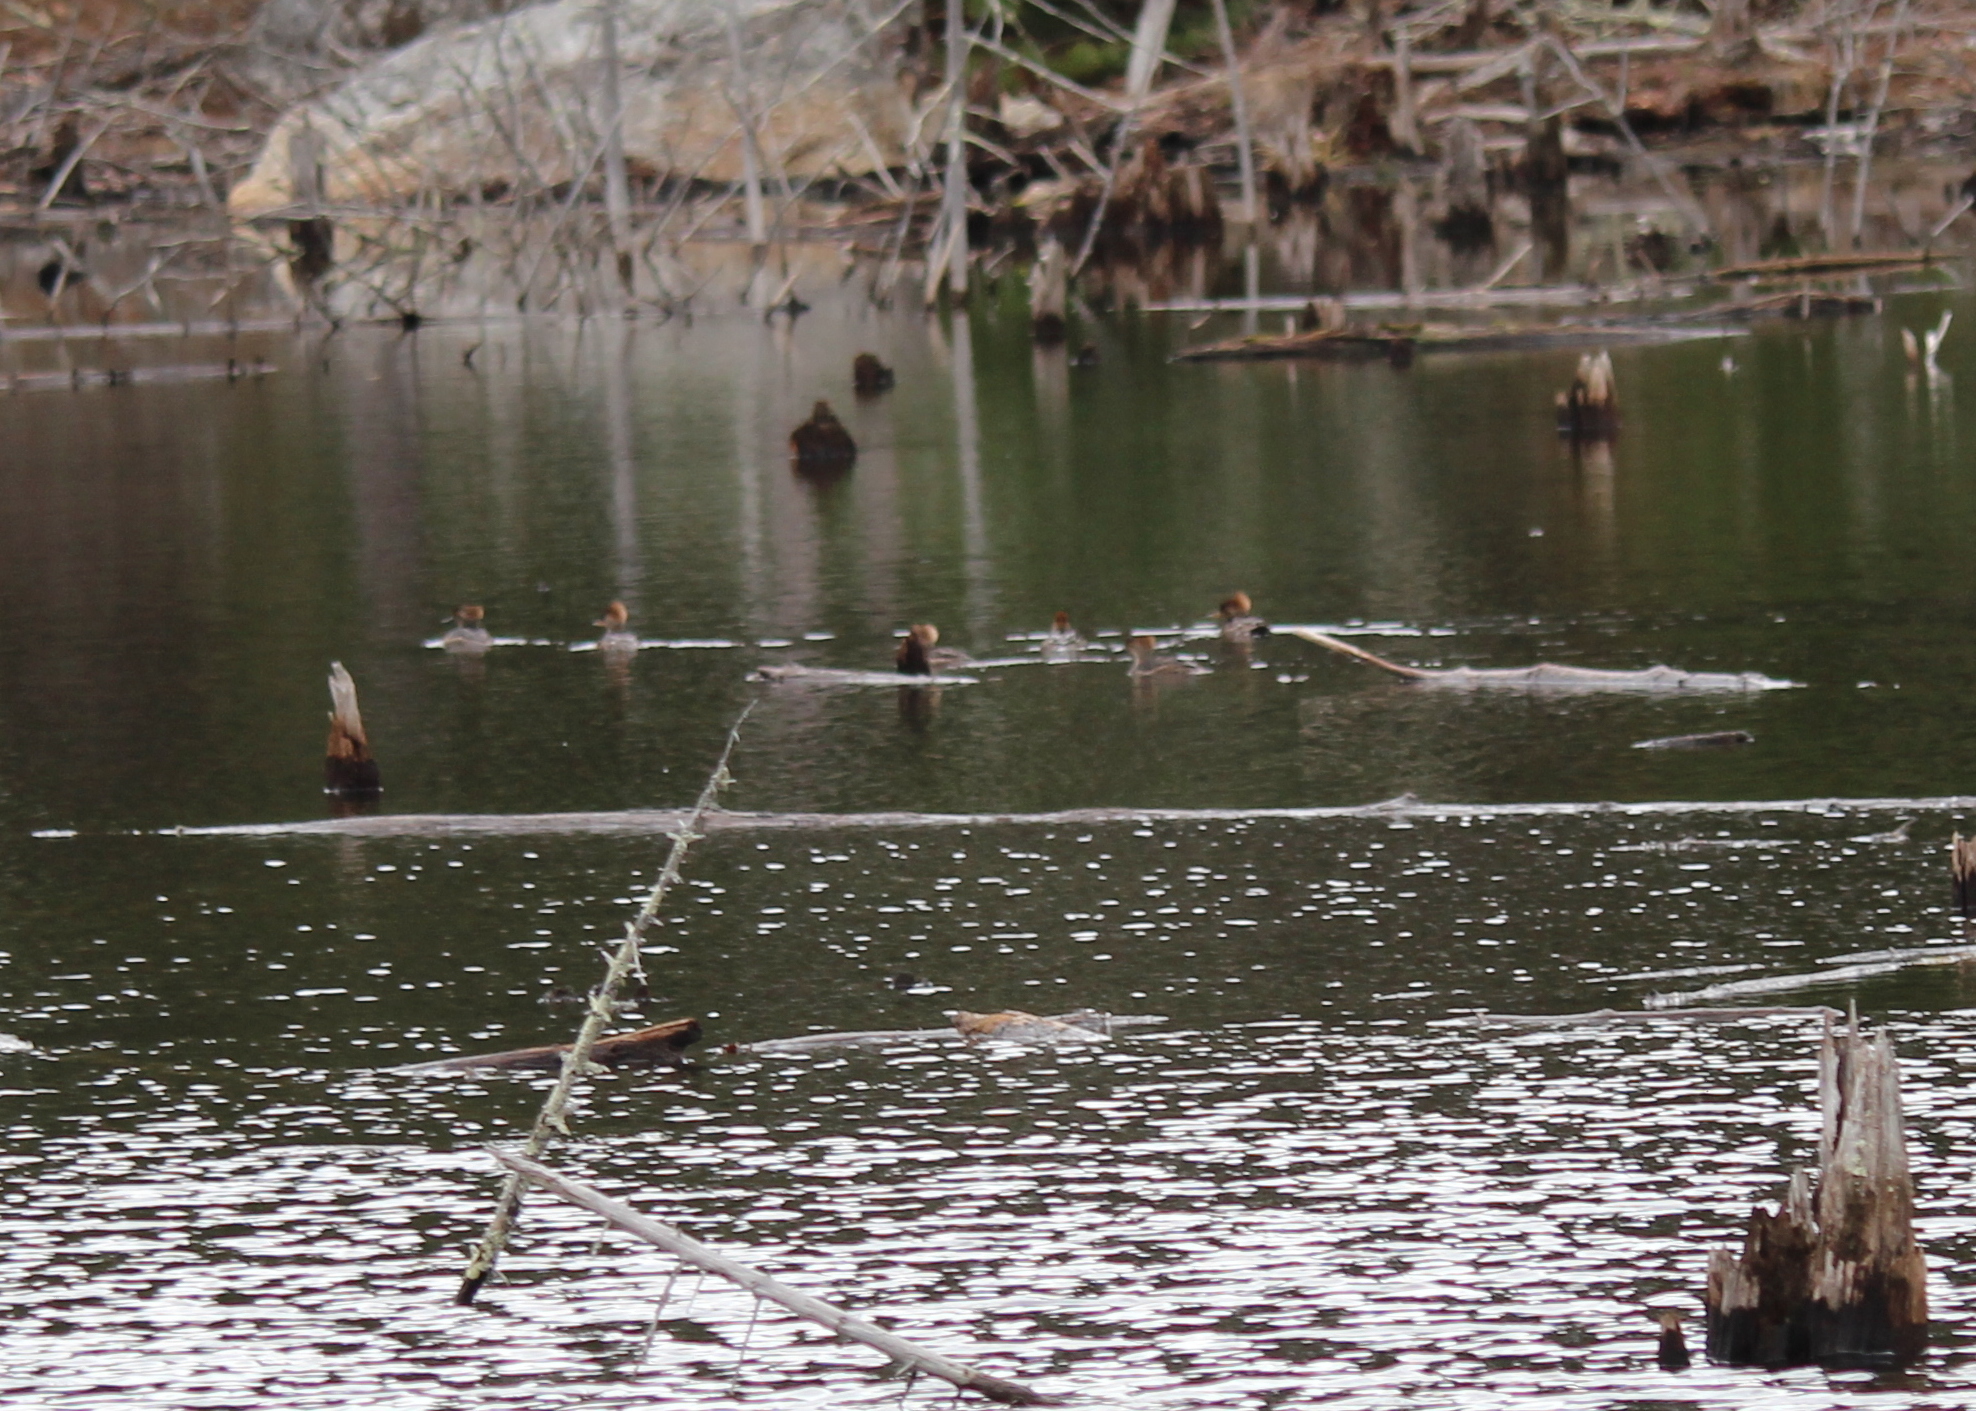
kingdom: Animalia
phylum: Chordata
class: Aves
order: Anseriformes
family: Anatidae
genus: Lophodytes
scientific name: Lophodytes cucullatus
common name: Hooded merganser
